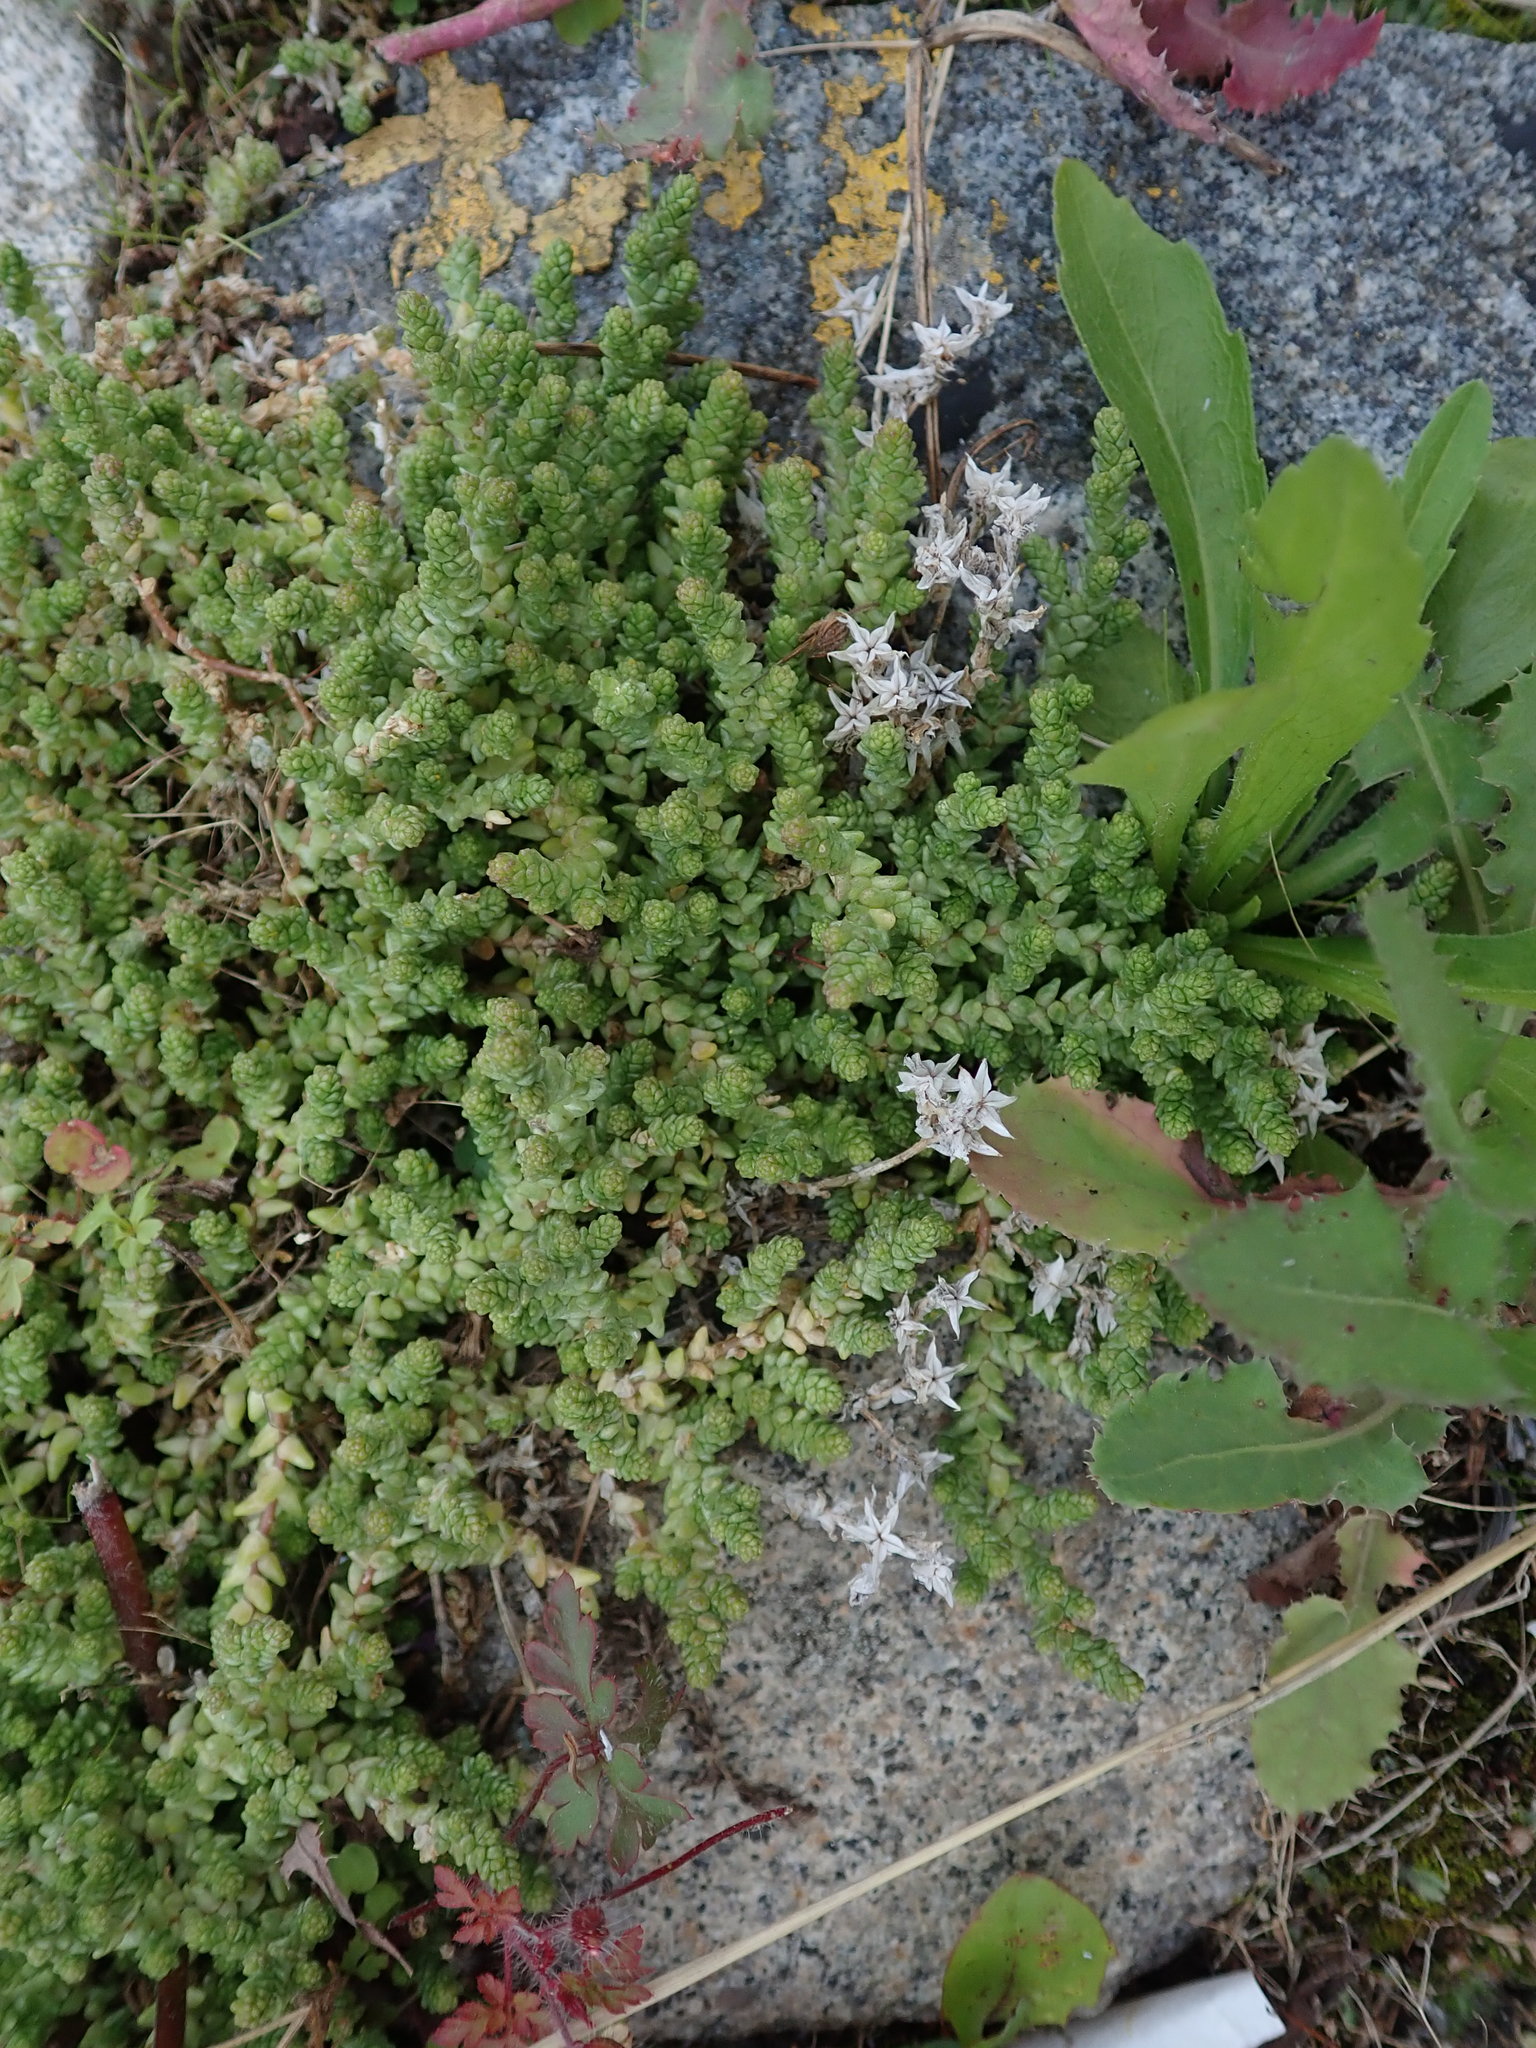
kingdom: Plantae
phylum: Tracheophyta
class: Magnoliopsida
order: Saxifragales
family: Crassulaceae
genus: Sedum
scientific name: Sedum acre
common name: Biting stonecrop
